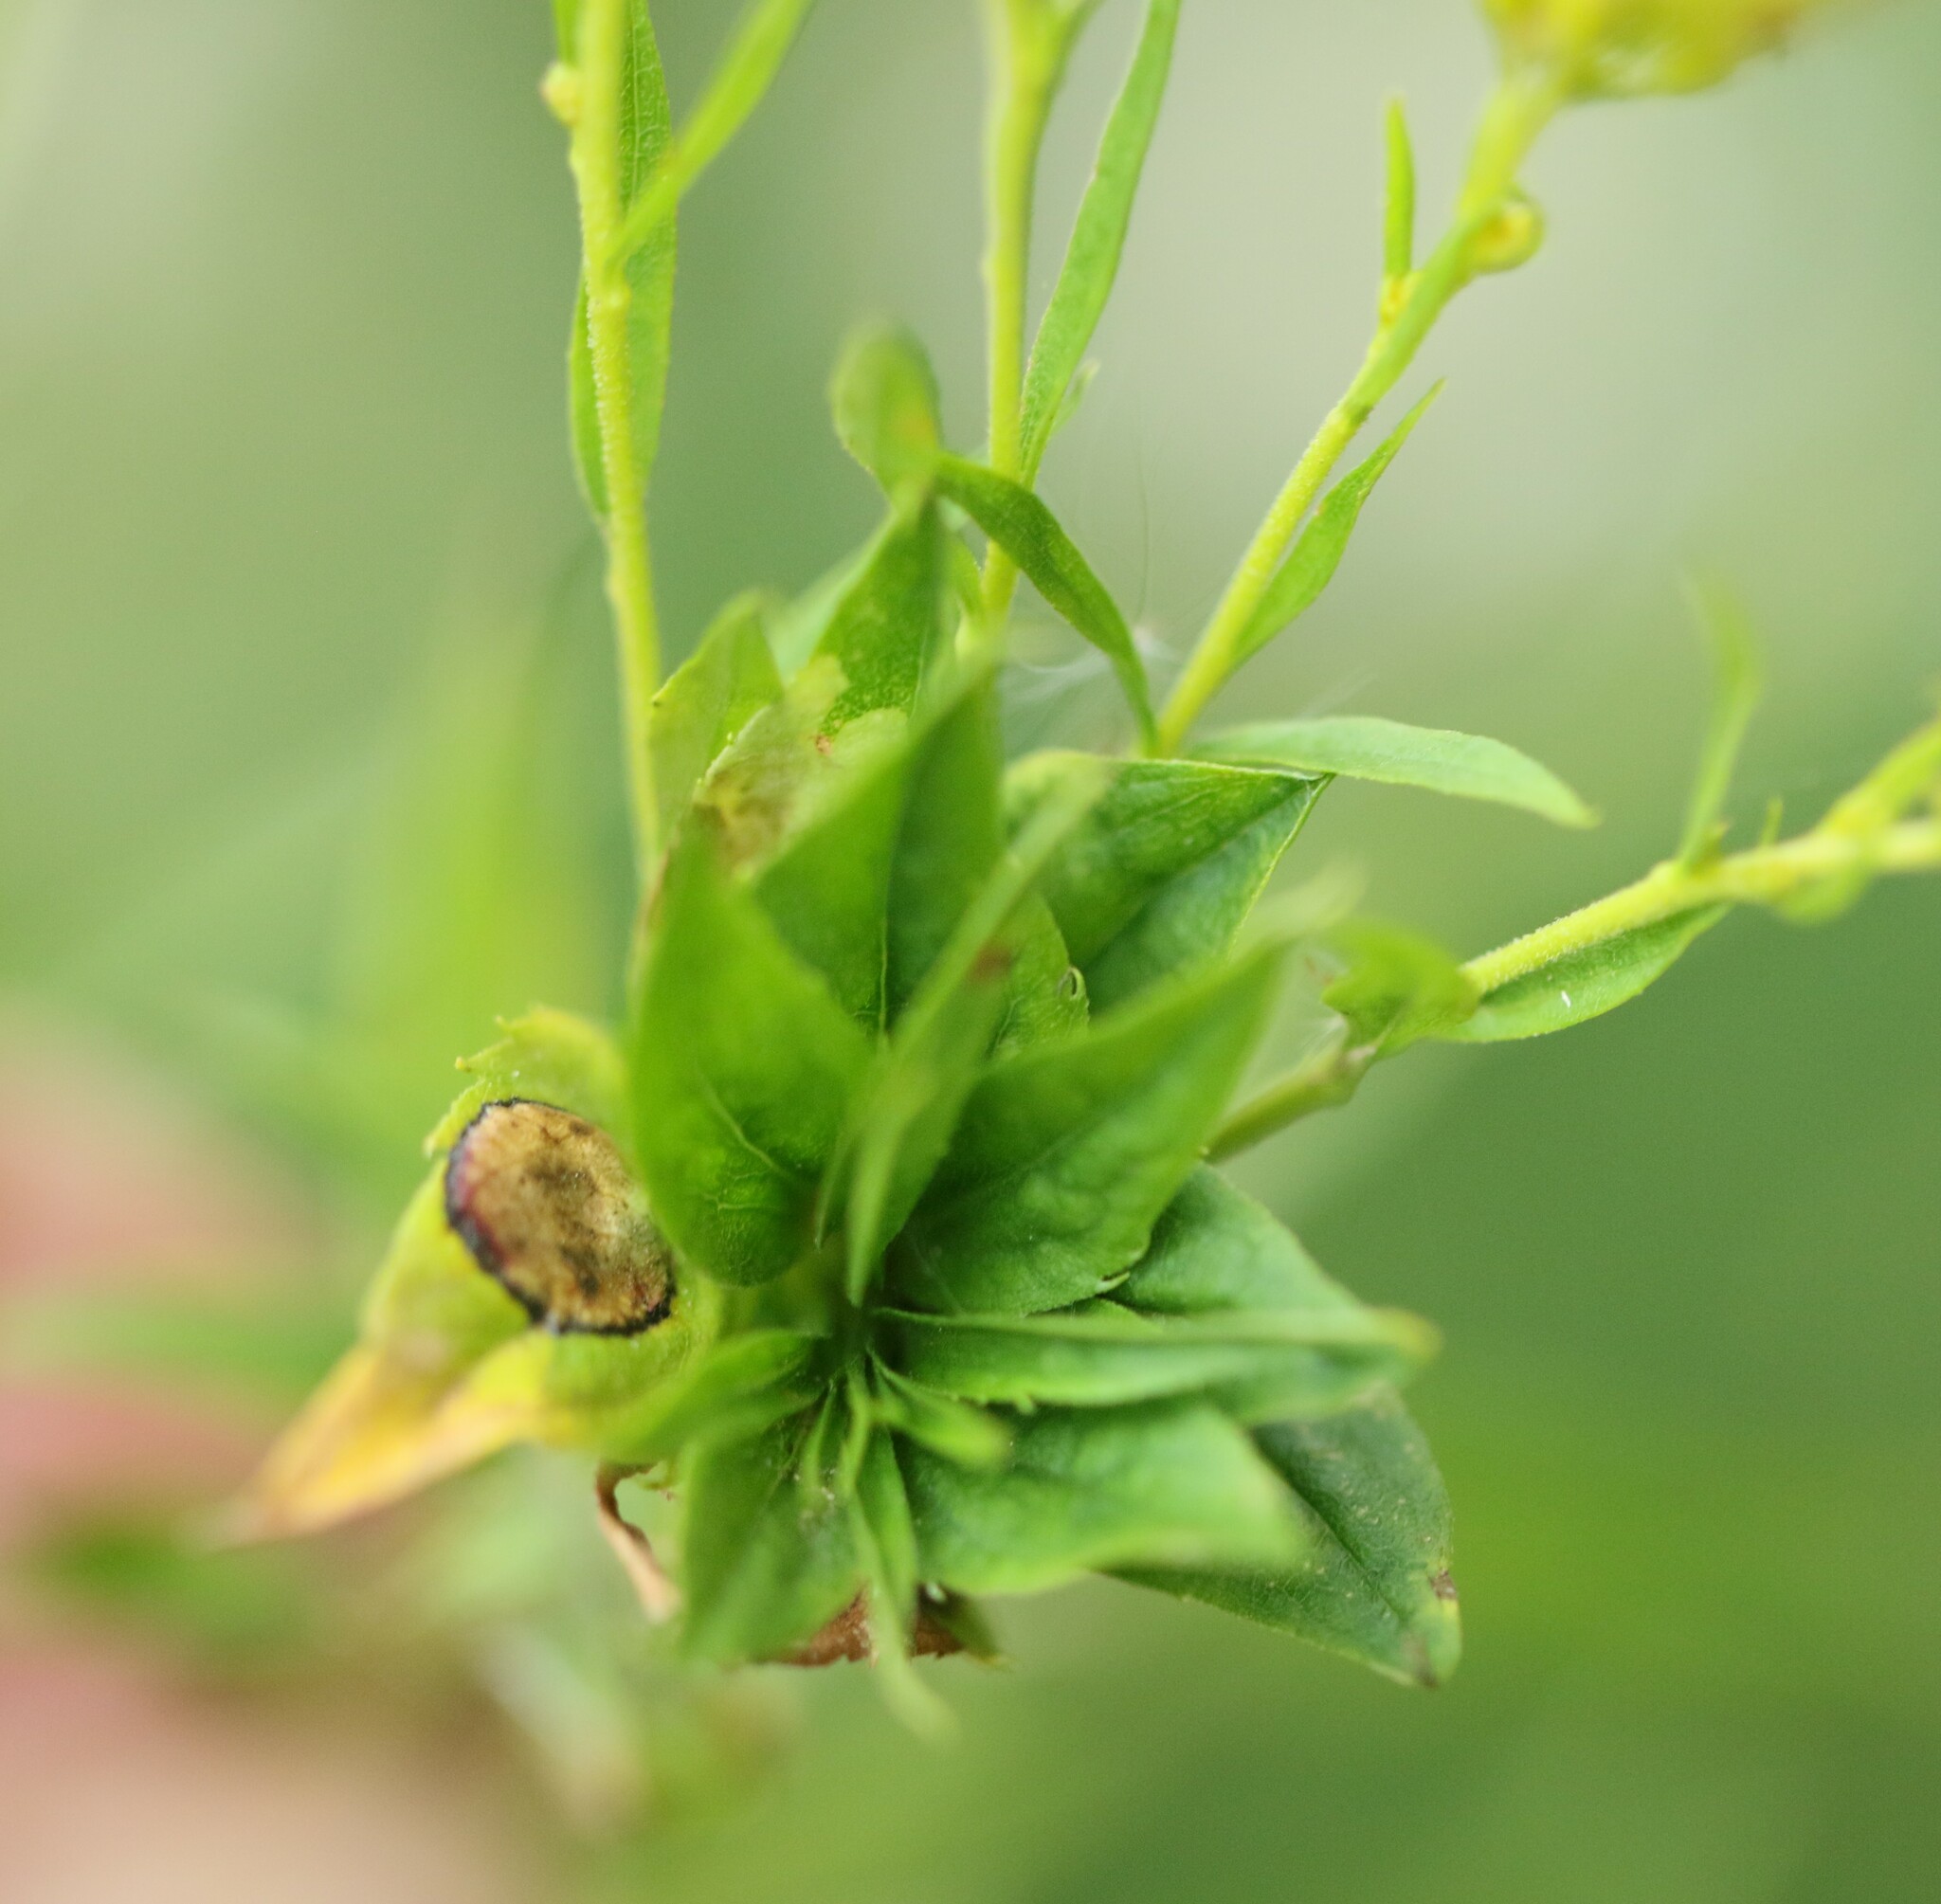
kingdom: Animalia
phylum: Arthropoda
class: Insecta
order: Diptera
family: Cecidomyiidae
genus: Rhopalomyia
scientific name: Rhopalomyia solidaginis
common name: Goldenrod bunch gall midge
